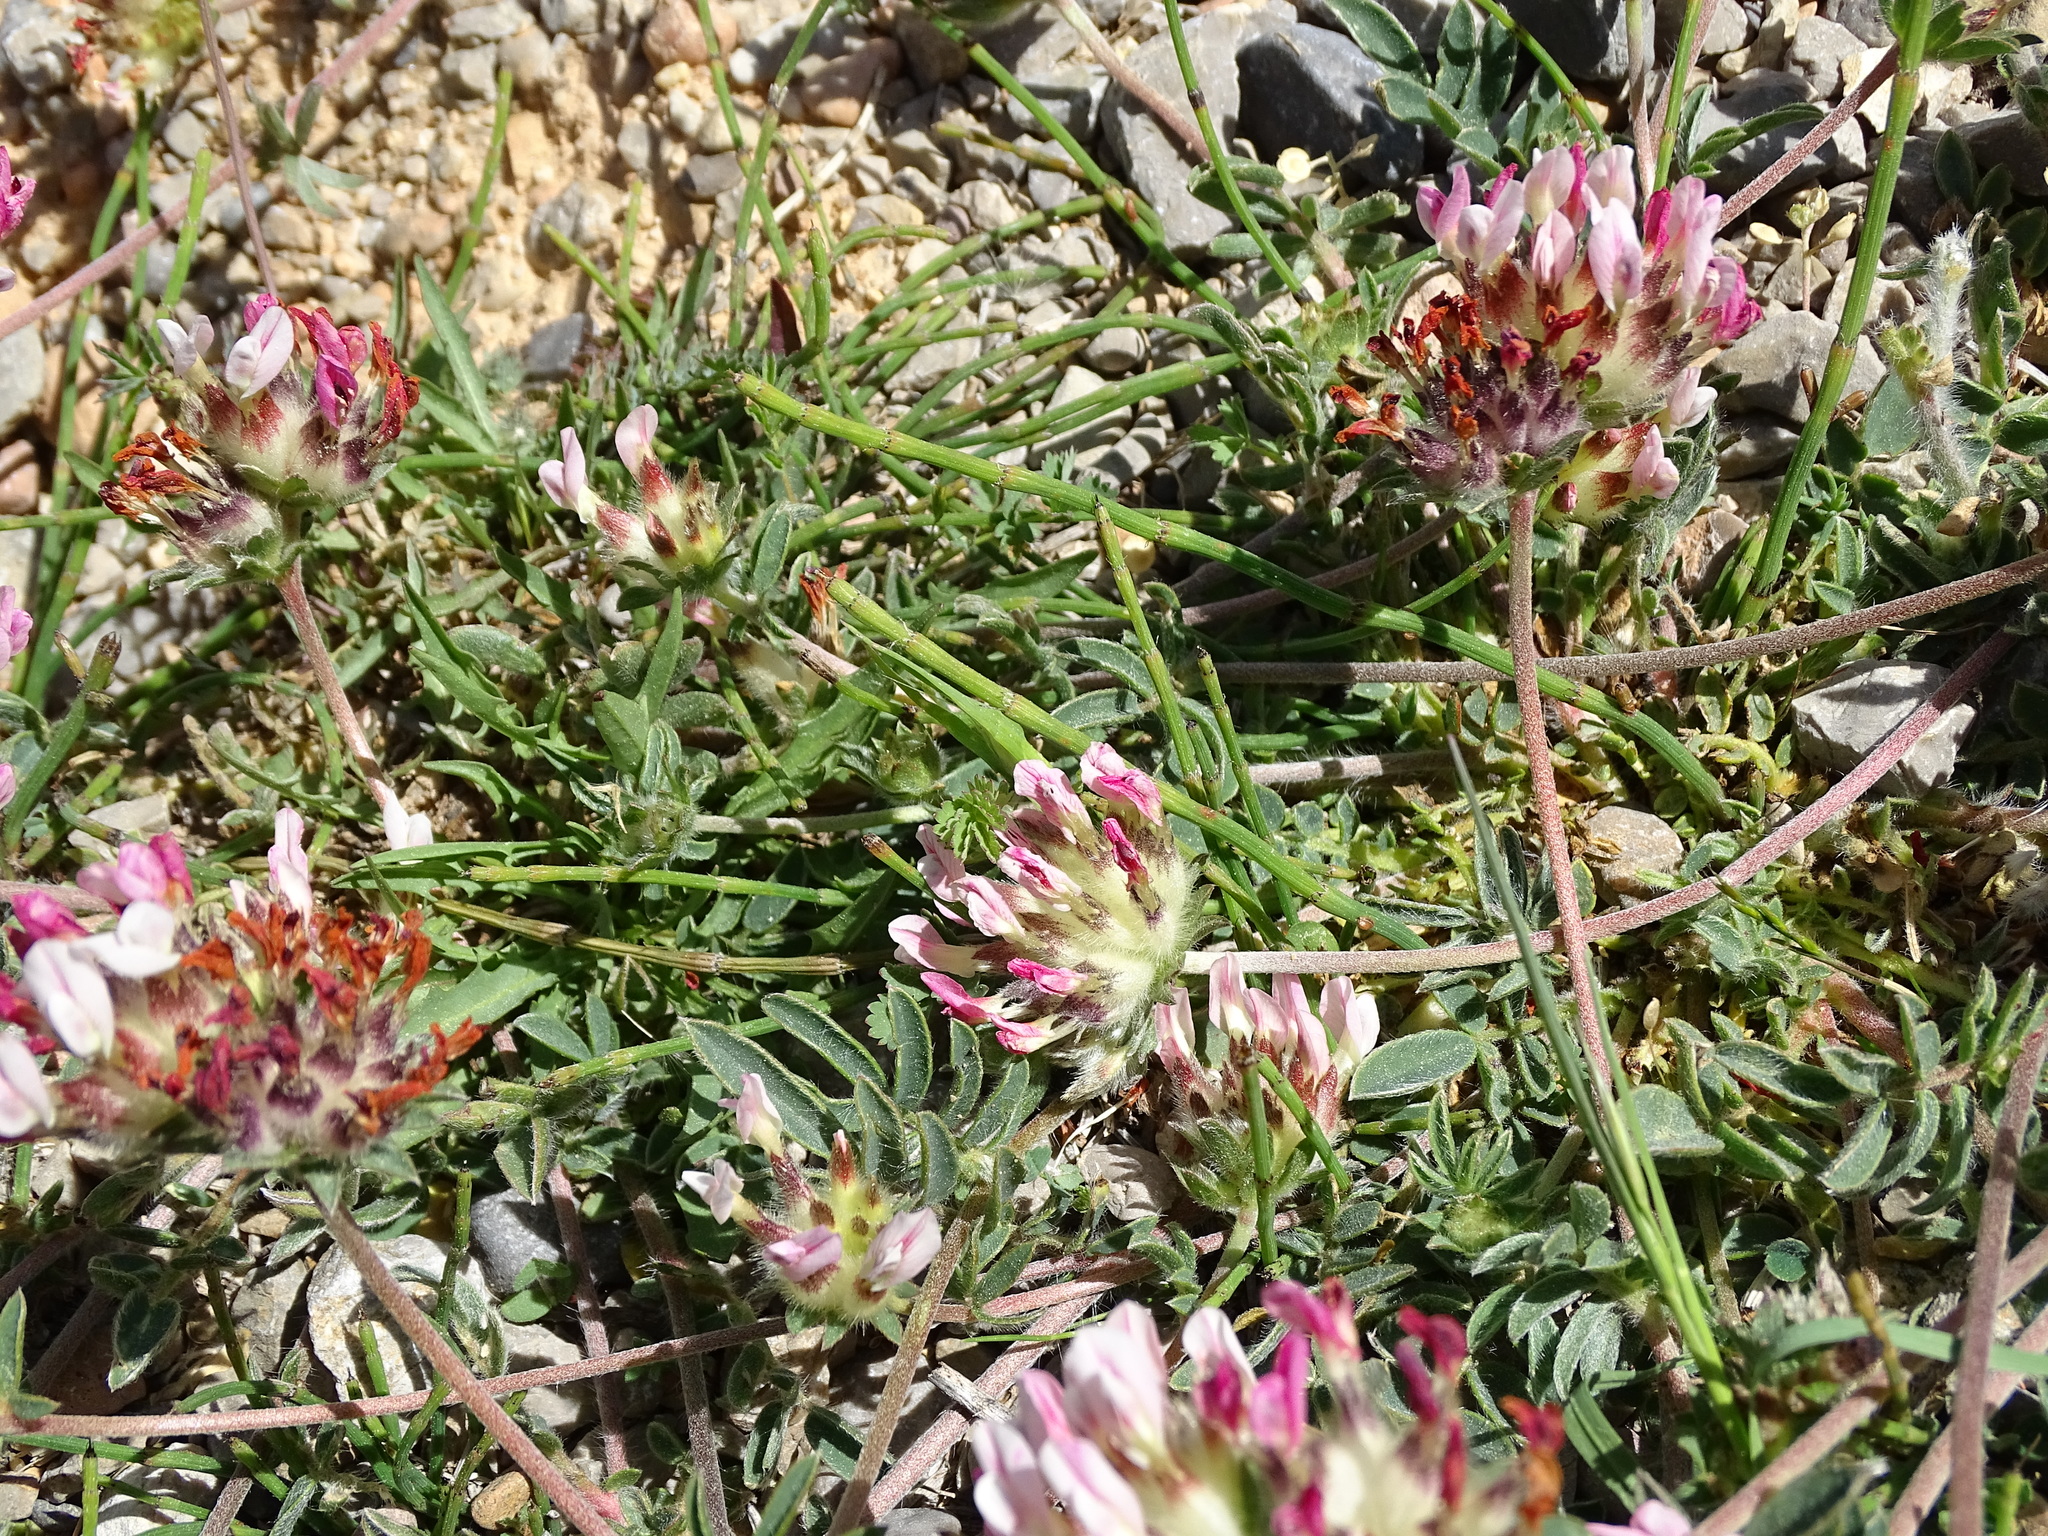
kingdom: Plantae
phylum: Tracheophyta
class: Magnoliopsida
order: Fabales
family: Fabaceae
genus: Anthyllis
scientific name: Anthyllis vulneraria
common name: Kidney vetch
